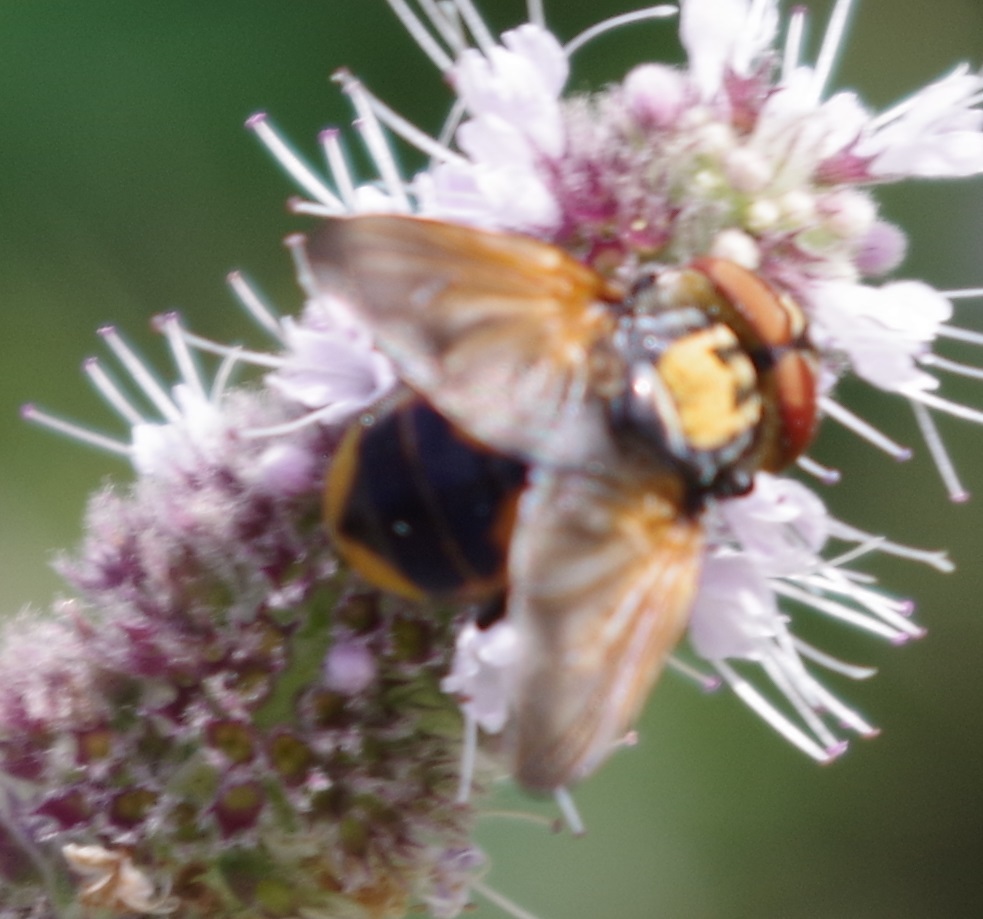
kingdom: Animalia
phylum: Arthropoda
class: Insecta
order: Diptera
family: Tachinidae
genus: Phasia
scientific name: Phasia aurigera
